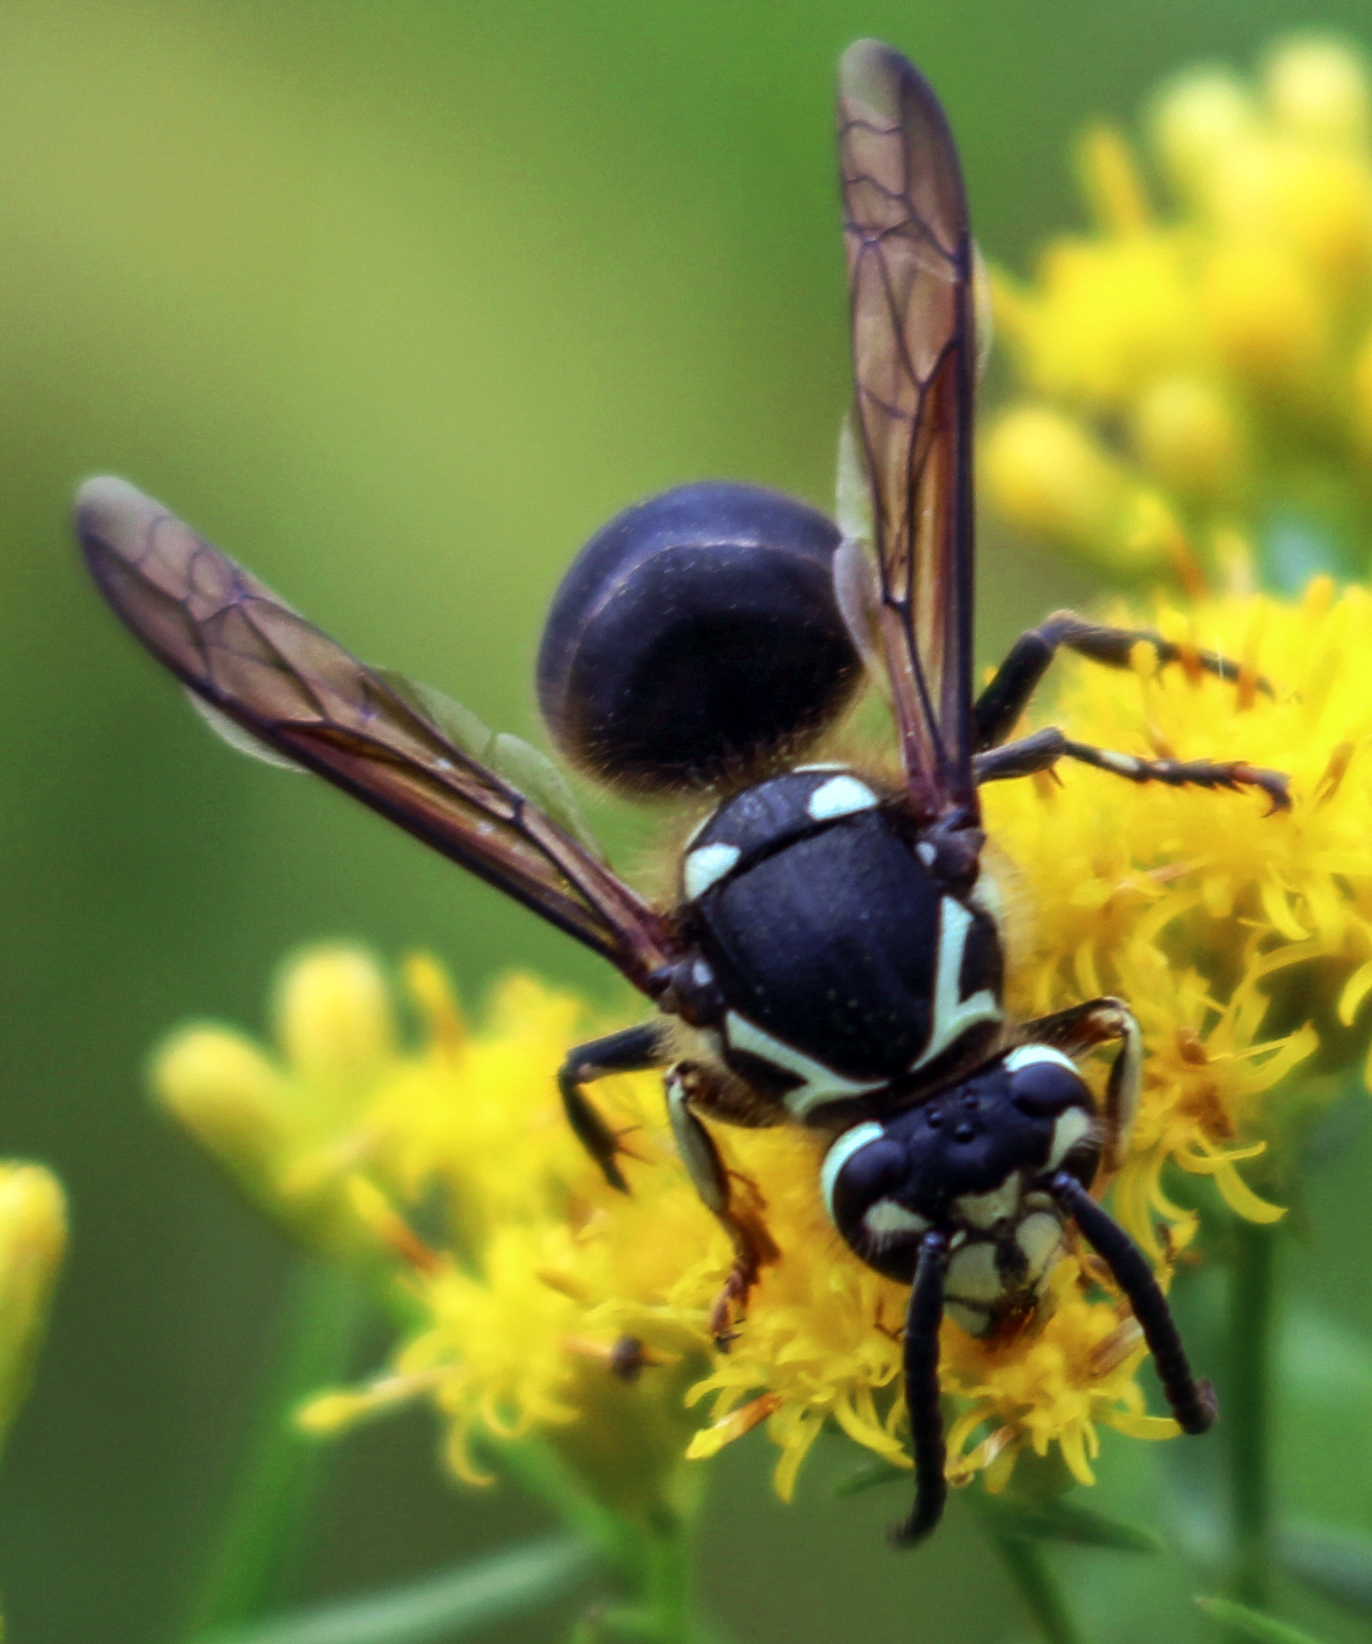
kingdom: Animalia
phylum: Arthropoda
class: Insecta
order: Hymenoptera
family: Vespidae
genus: Dolichovespula
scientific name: Dolichovespula maculata
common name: Bald-faced hornet
